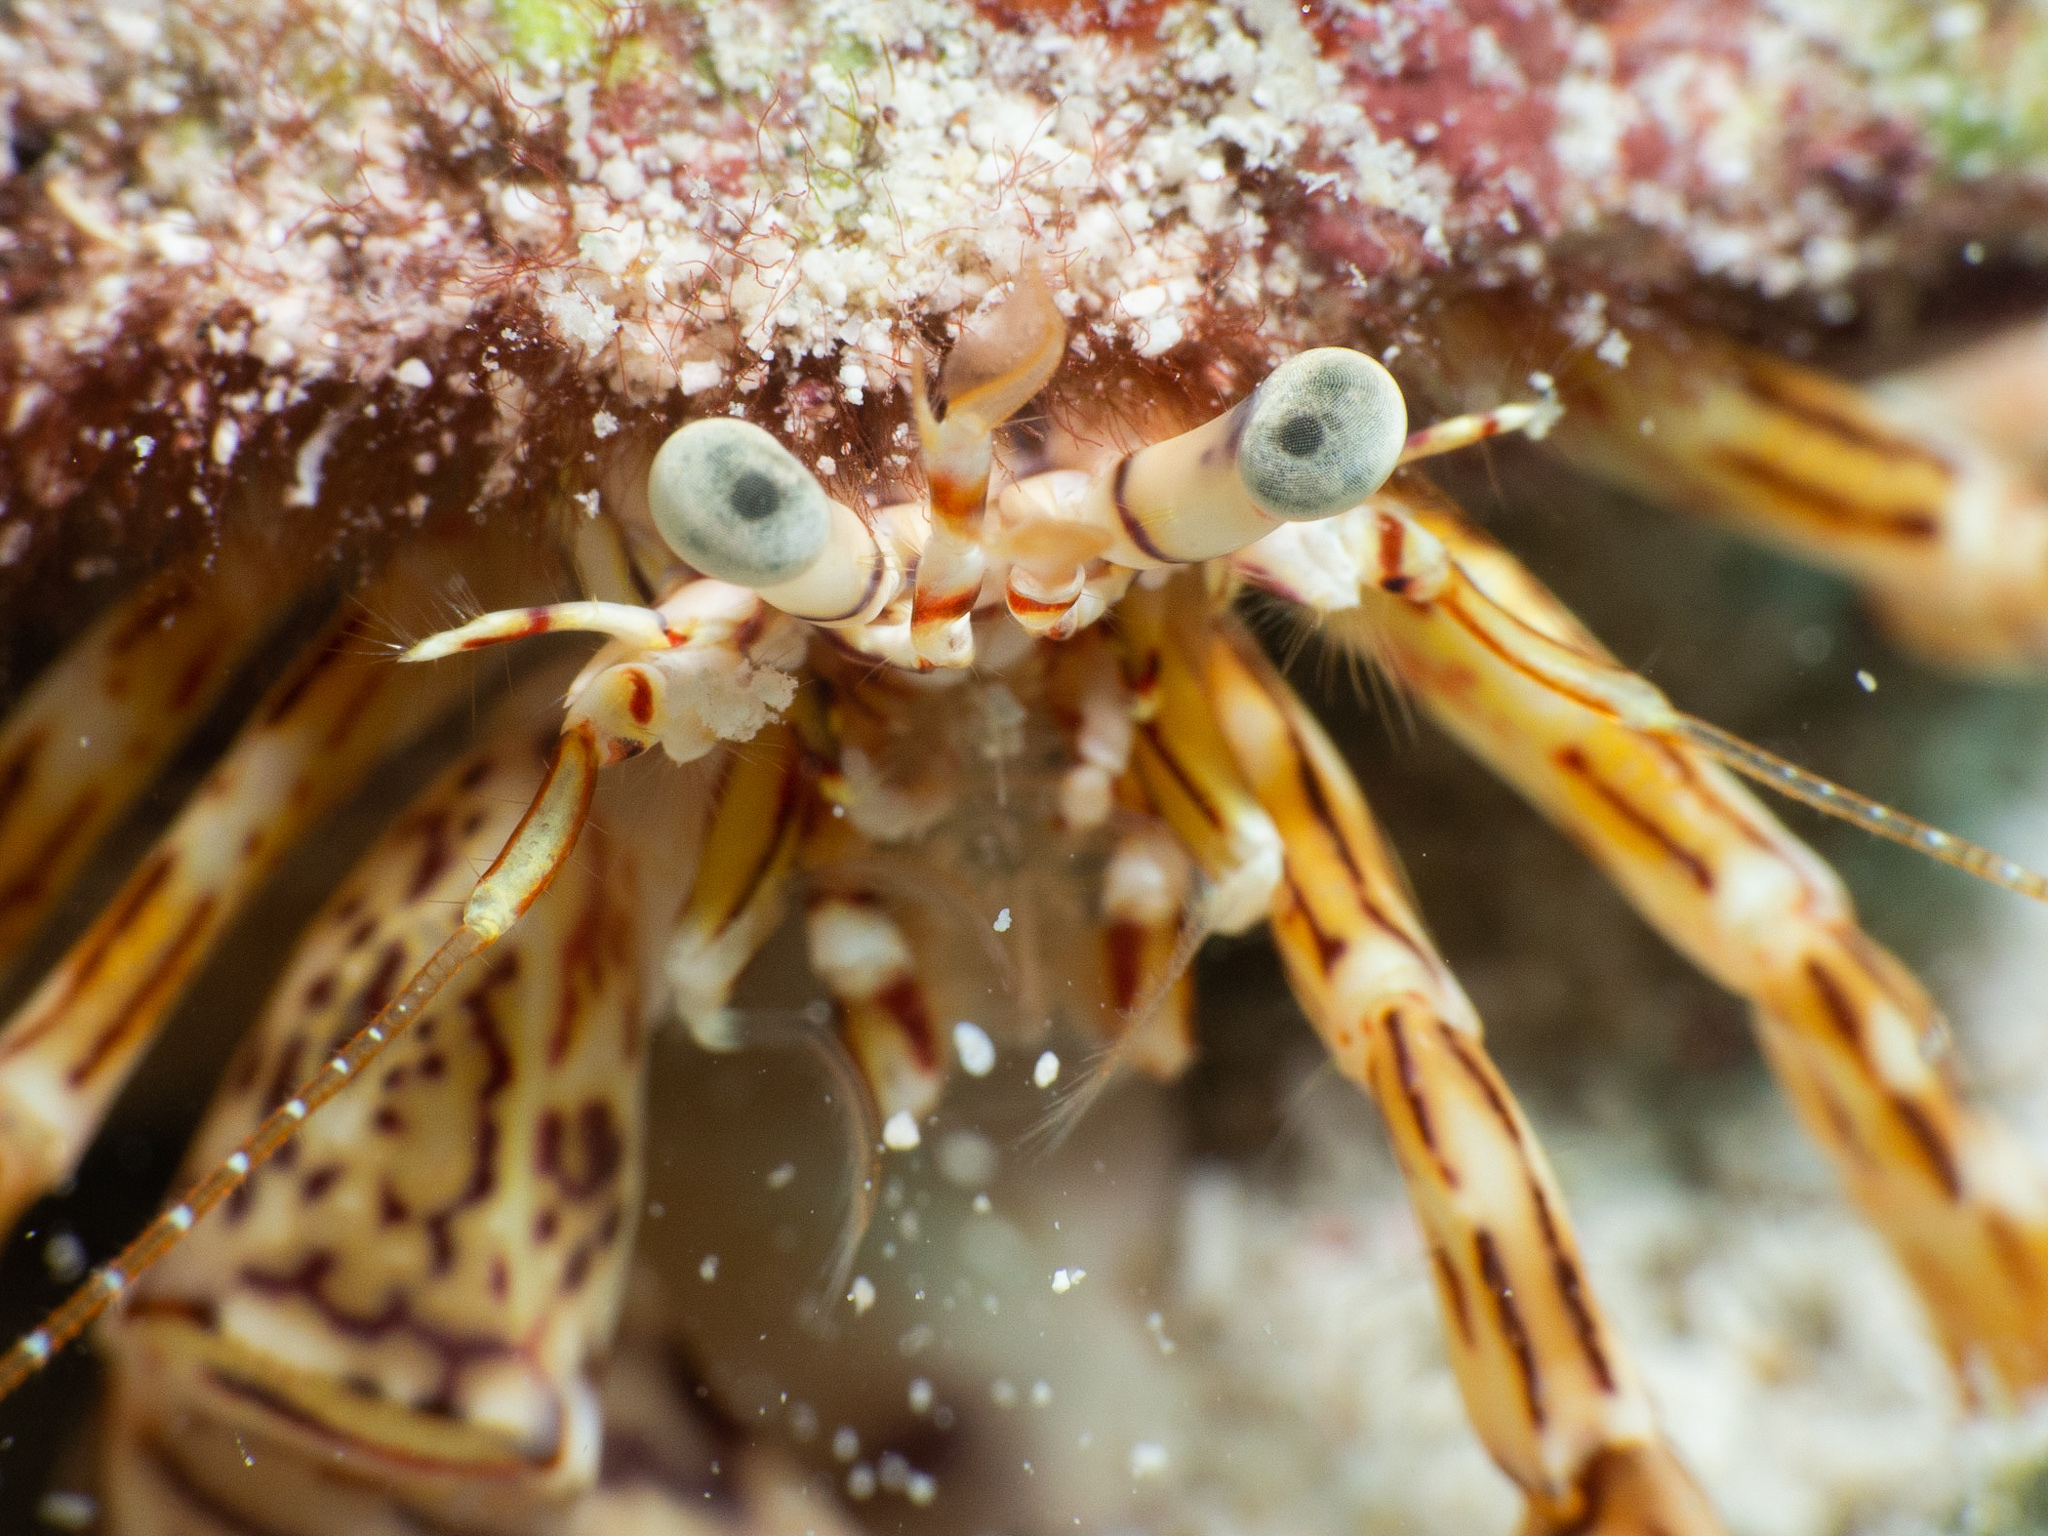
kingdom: Animalia
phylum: Arthropoda
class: Malacostraca
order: Decapoda
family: Paguridae
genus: Phimochirus
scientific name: Phimochirus holthuisi
